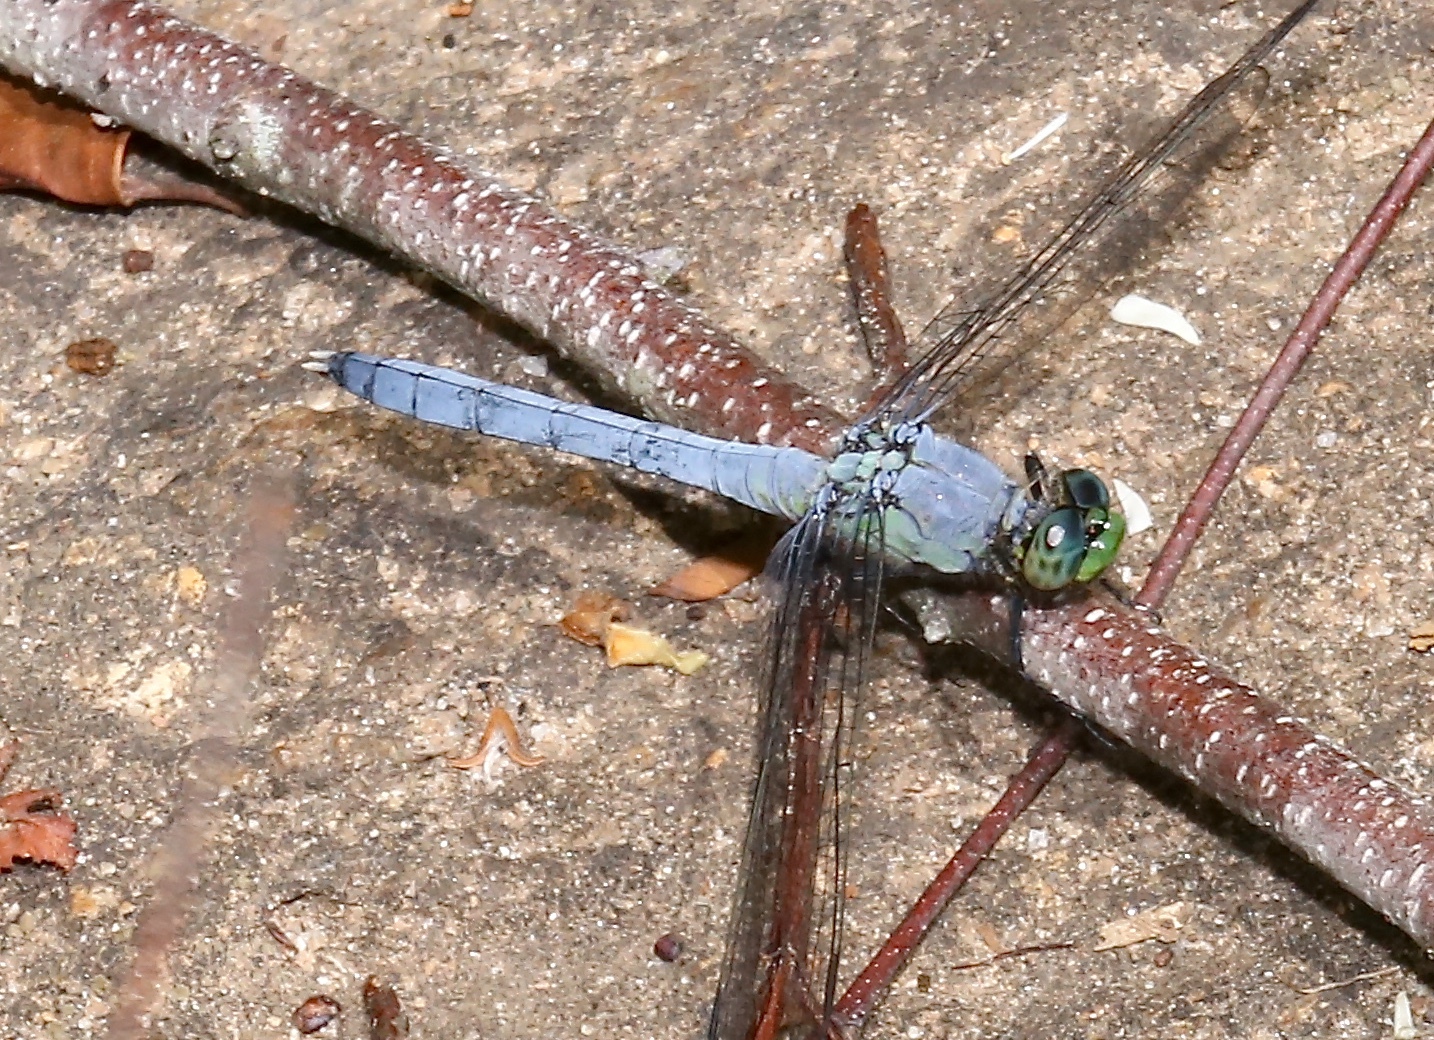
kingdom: Animalia
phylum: Arthropoda
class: Insecta
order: Odonata
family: Libellulidae
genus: Erythemis
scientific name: Erythemis simplicicollis
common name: Eastern pondhawk
